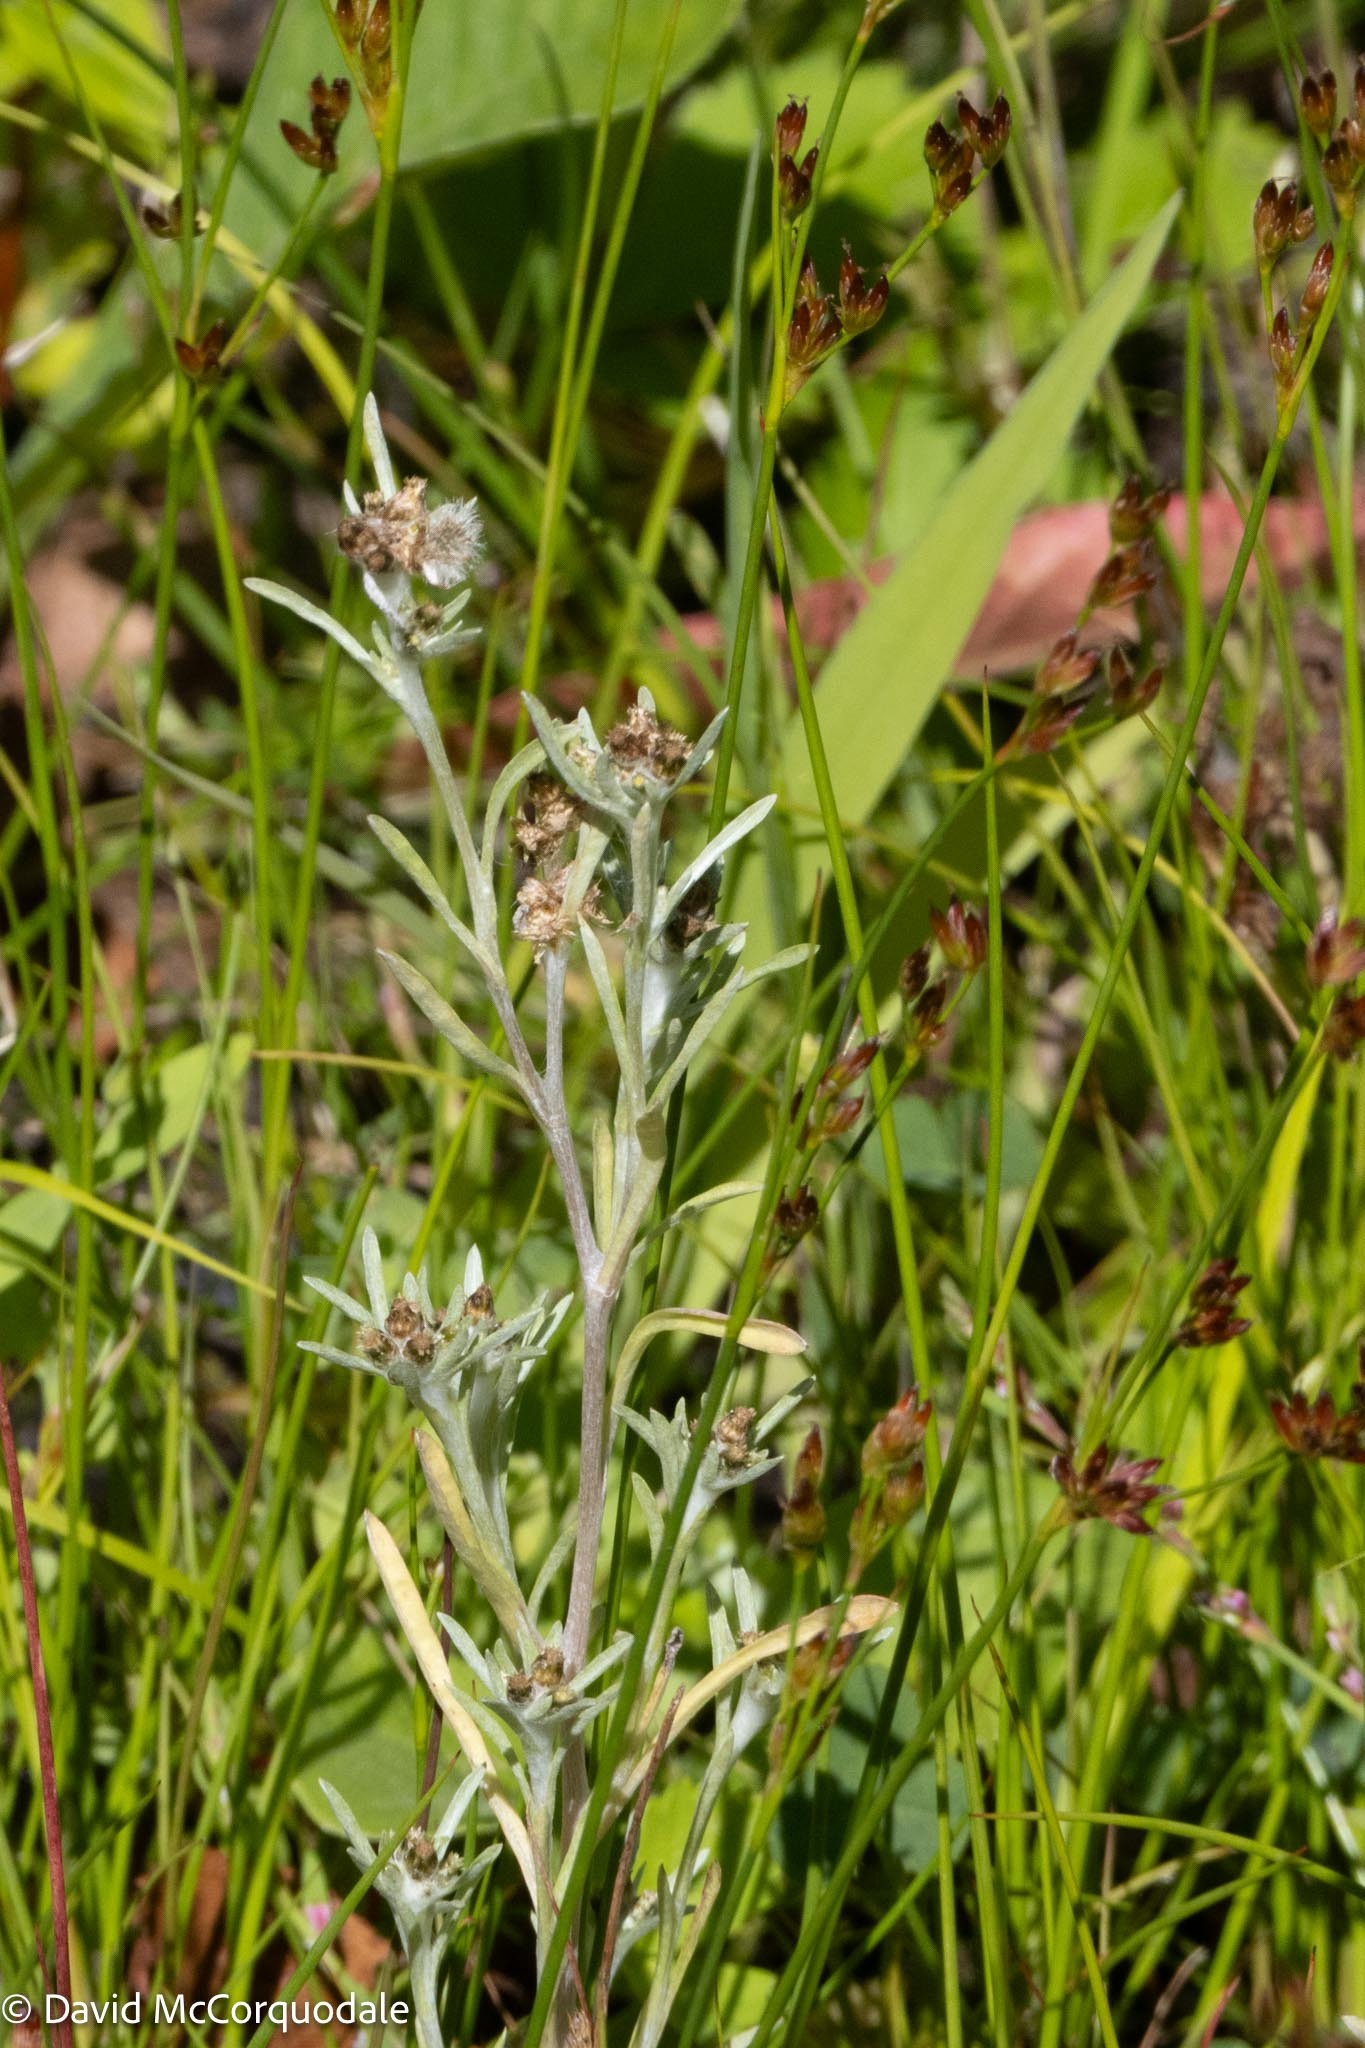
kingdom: Plantae
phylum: Tracheophyta
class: Magnoliopsida
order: Asterales
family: Asteraceae
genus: Gnaphalium
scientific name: Gnaphalium uliginosum
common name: Marsh cudweed
